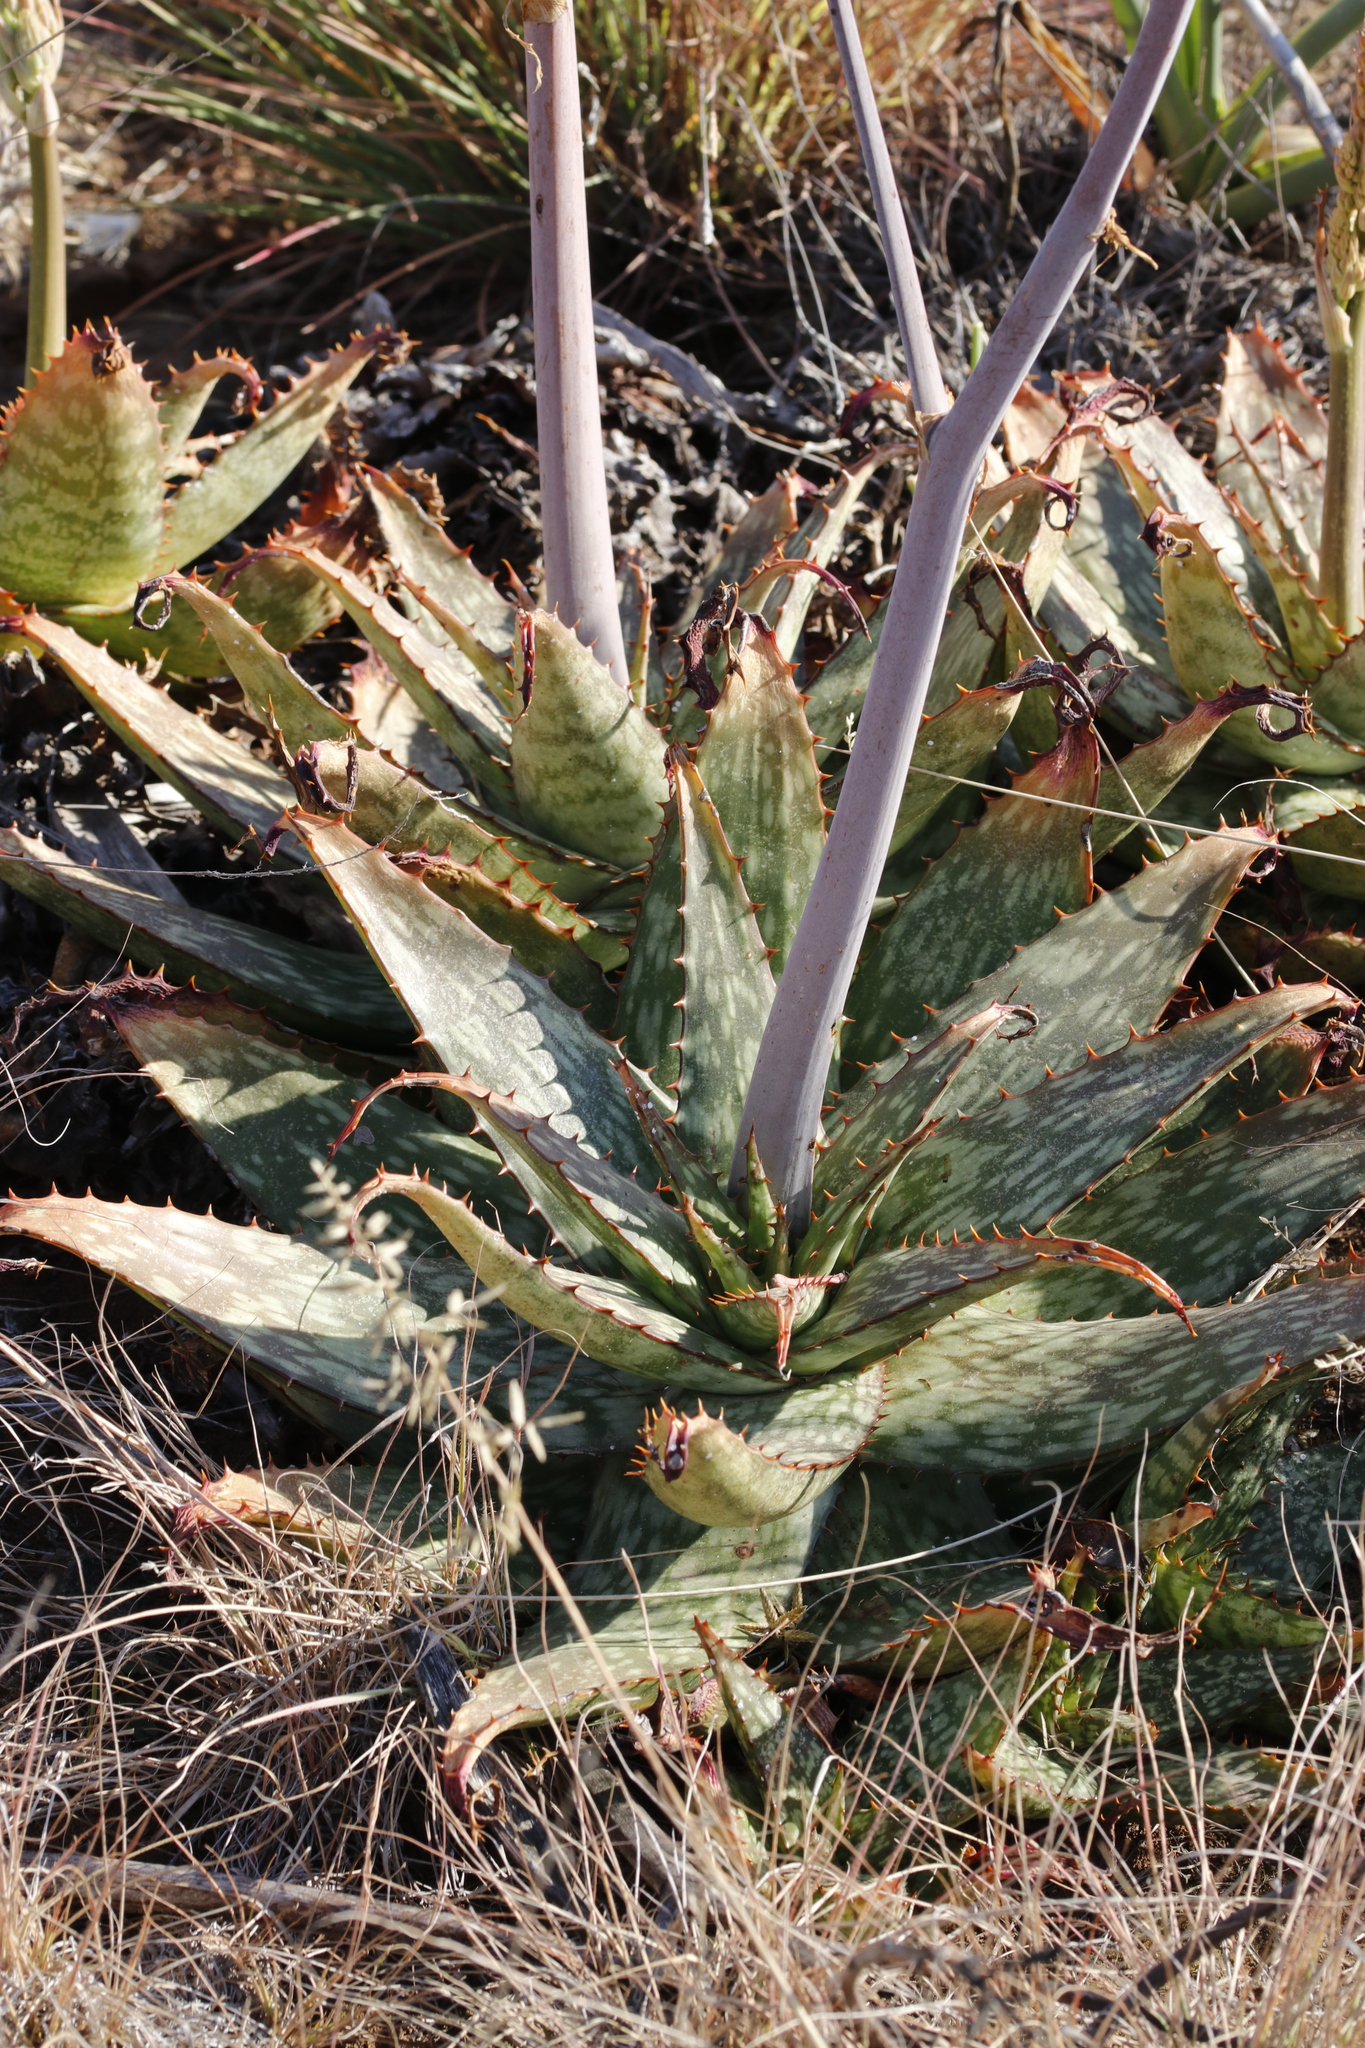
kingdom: Plantae
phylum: Tracheophyta
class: Liliopsida
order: Asparagales
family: Asphodelaceae
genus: Aloe
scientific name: Aloe grandidentata
